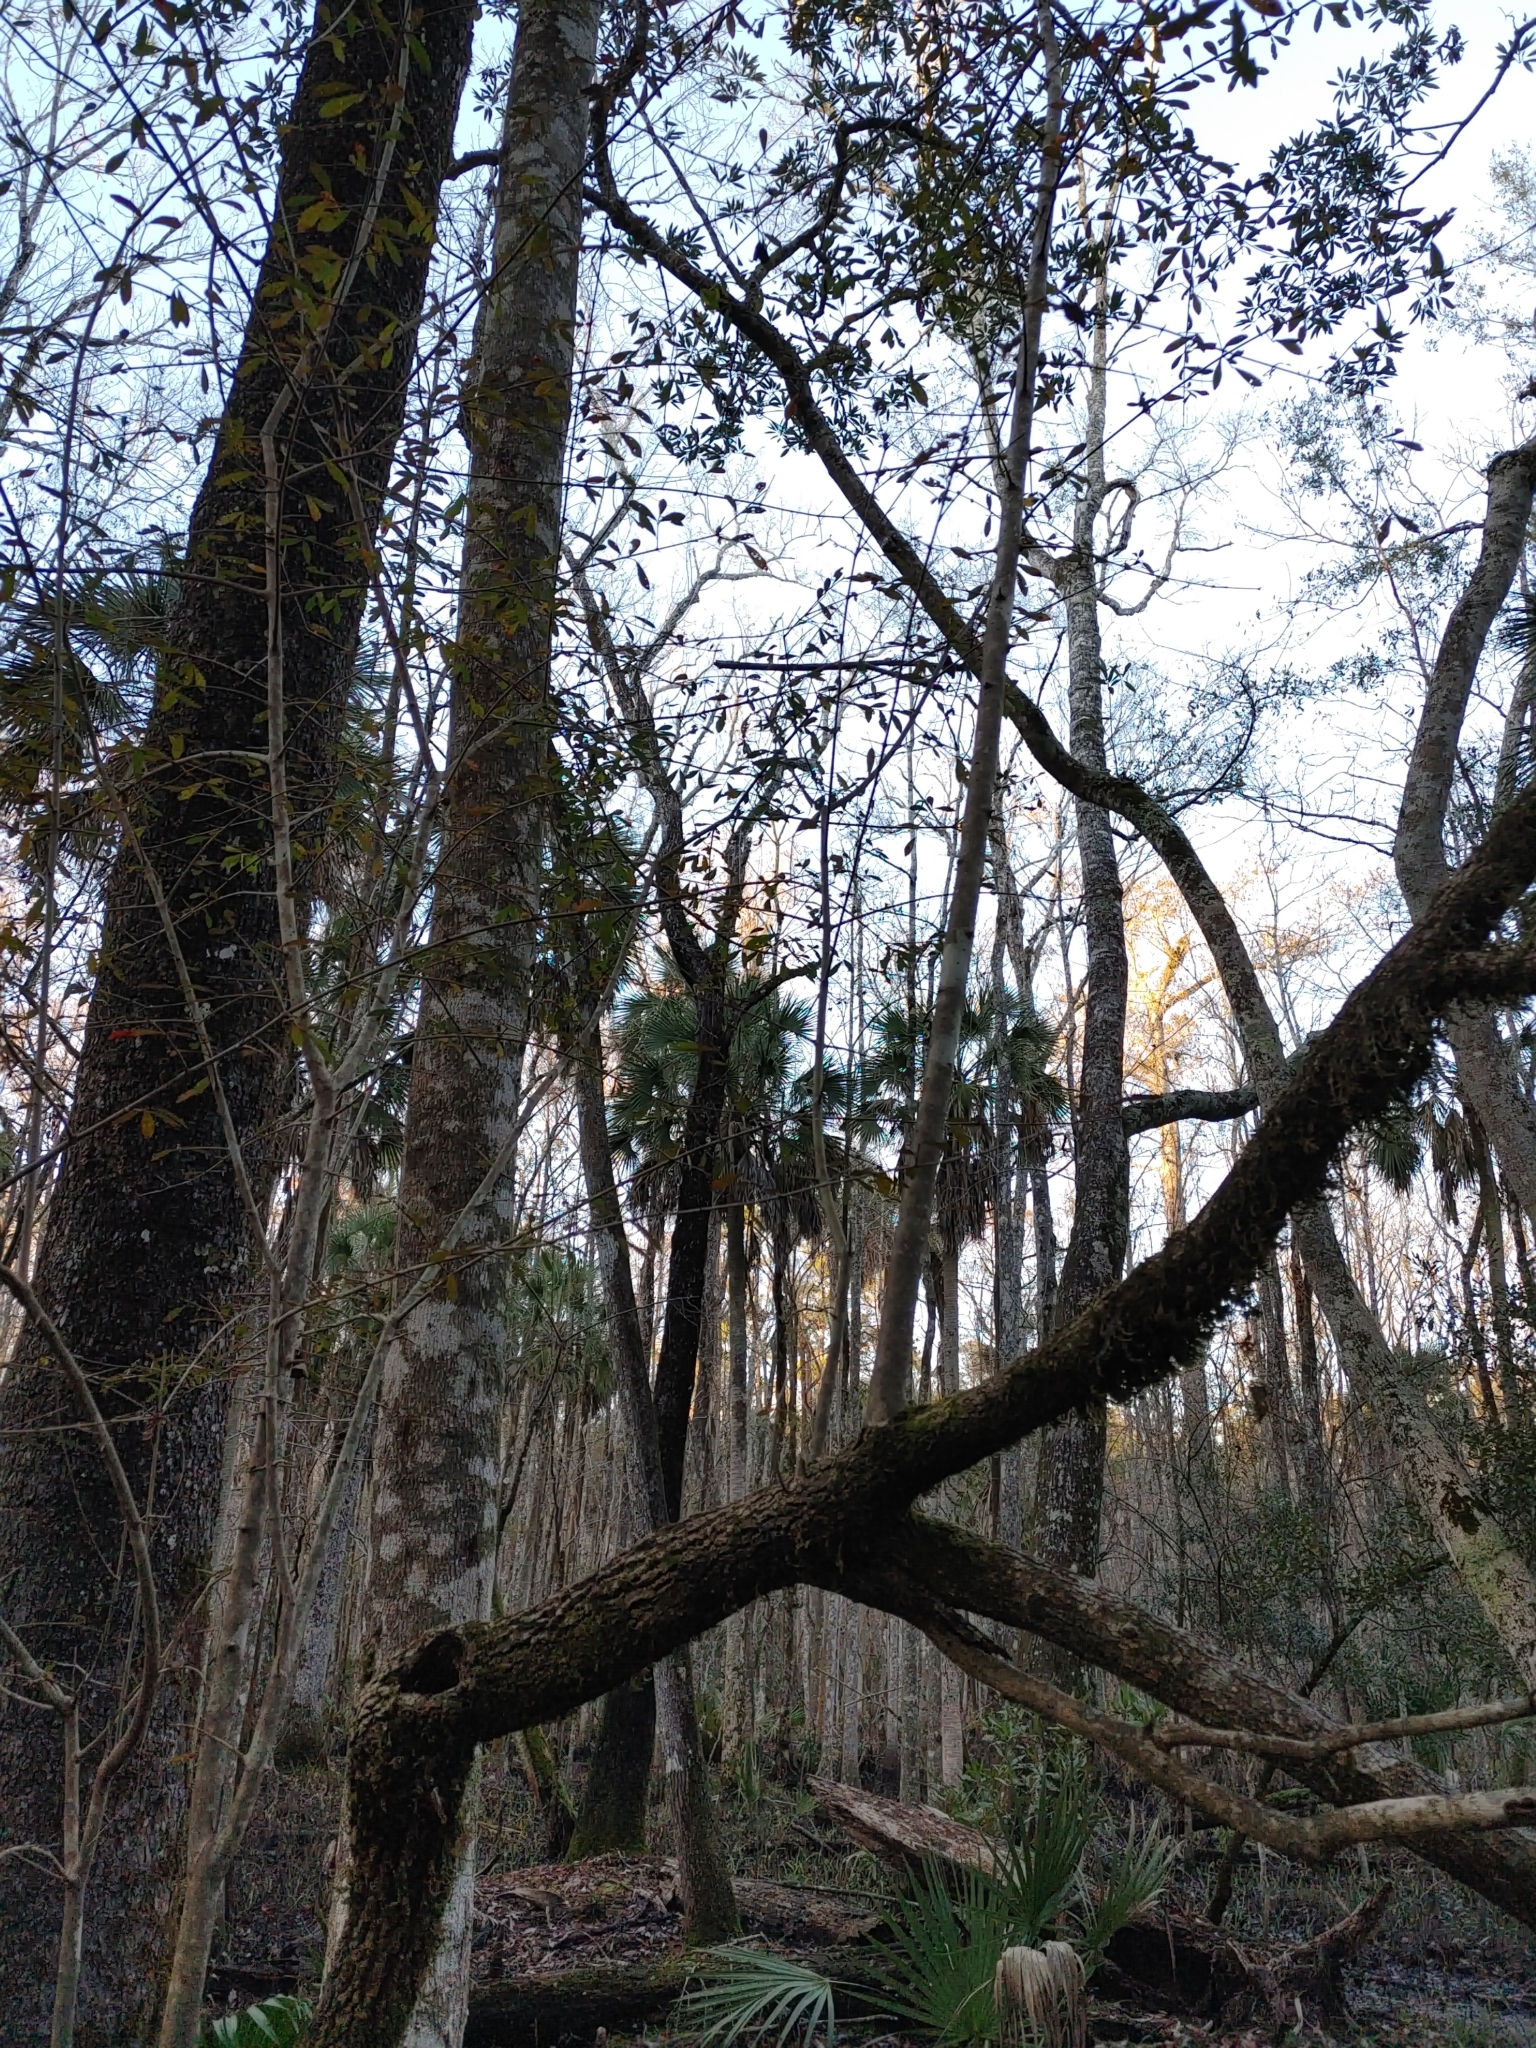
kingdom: Plantae
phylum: Tracheophyta
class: Magnoliopsida
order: Dipsacales
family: Viburnaceae
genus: Viburnum
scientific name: Viburnum obovatum
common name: Walter's viburnum
